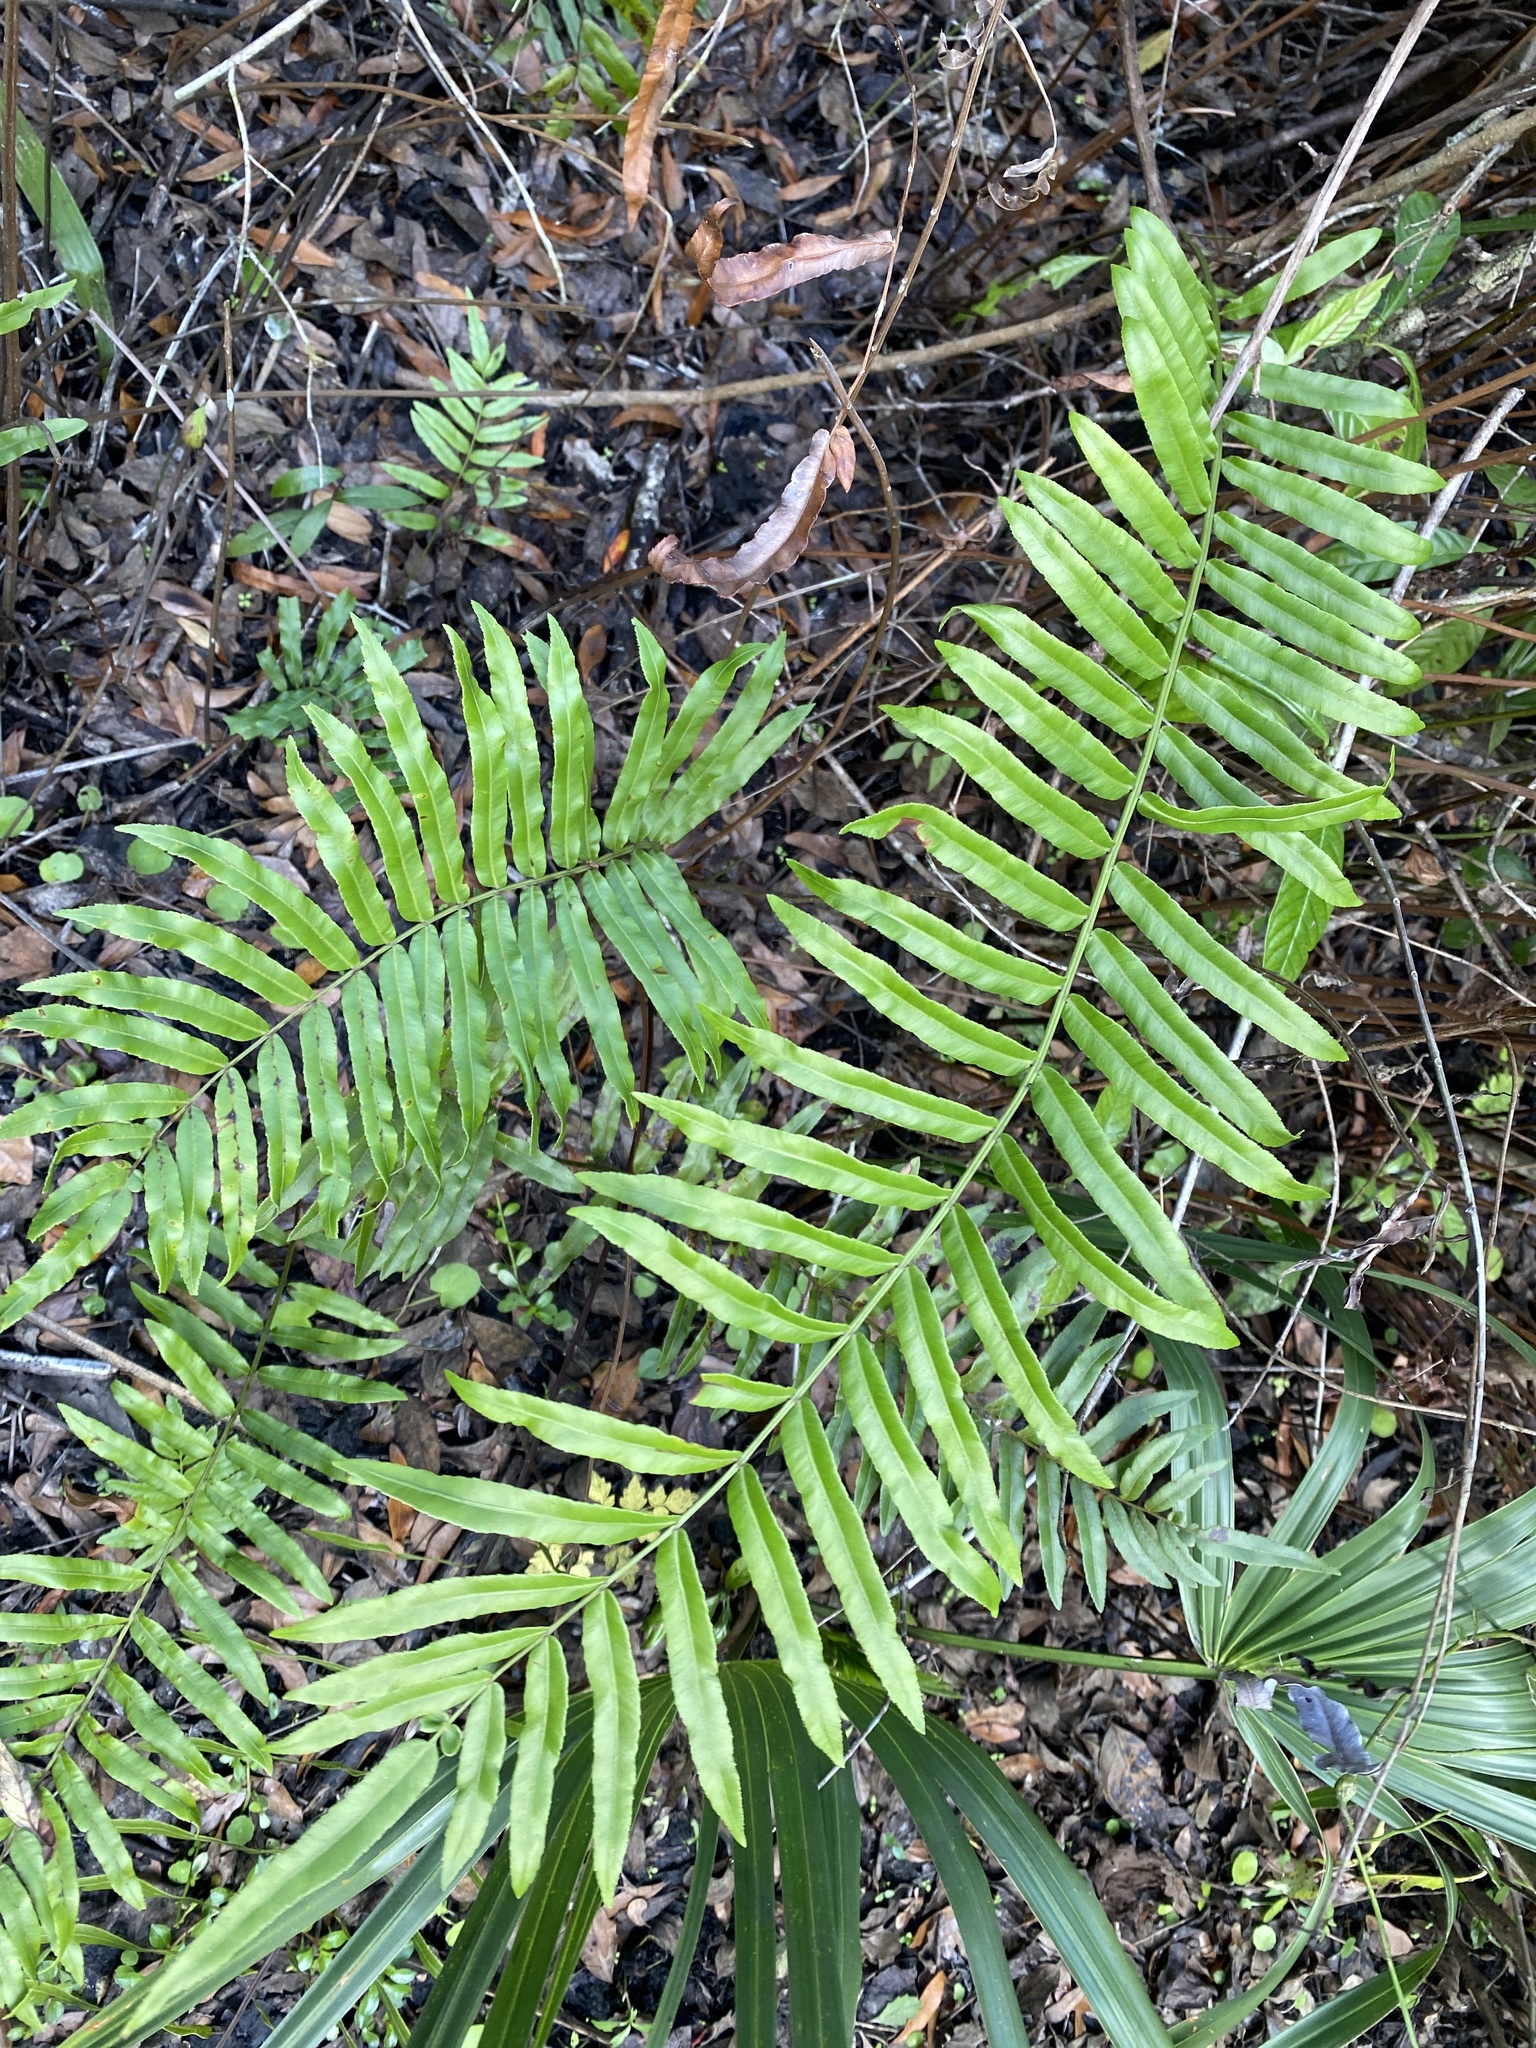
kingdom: Plantae
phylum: Tracheophyta
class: Polypodiopsida
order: Polypodiales
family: Blechnaceae
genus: Telmatoblechnum
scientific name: Telmatoblechnum serrulatum
